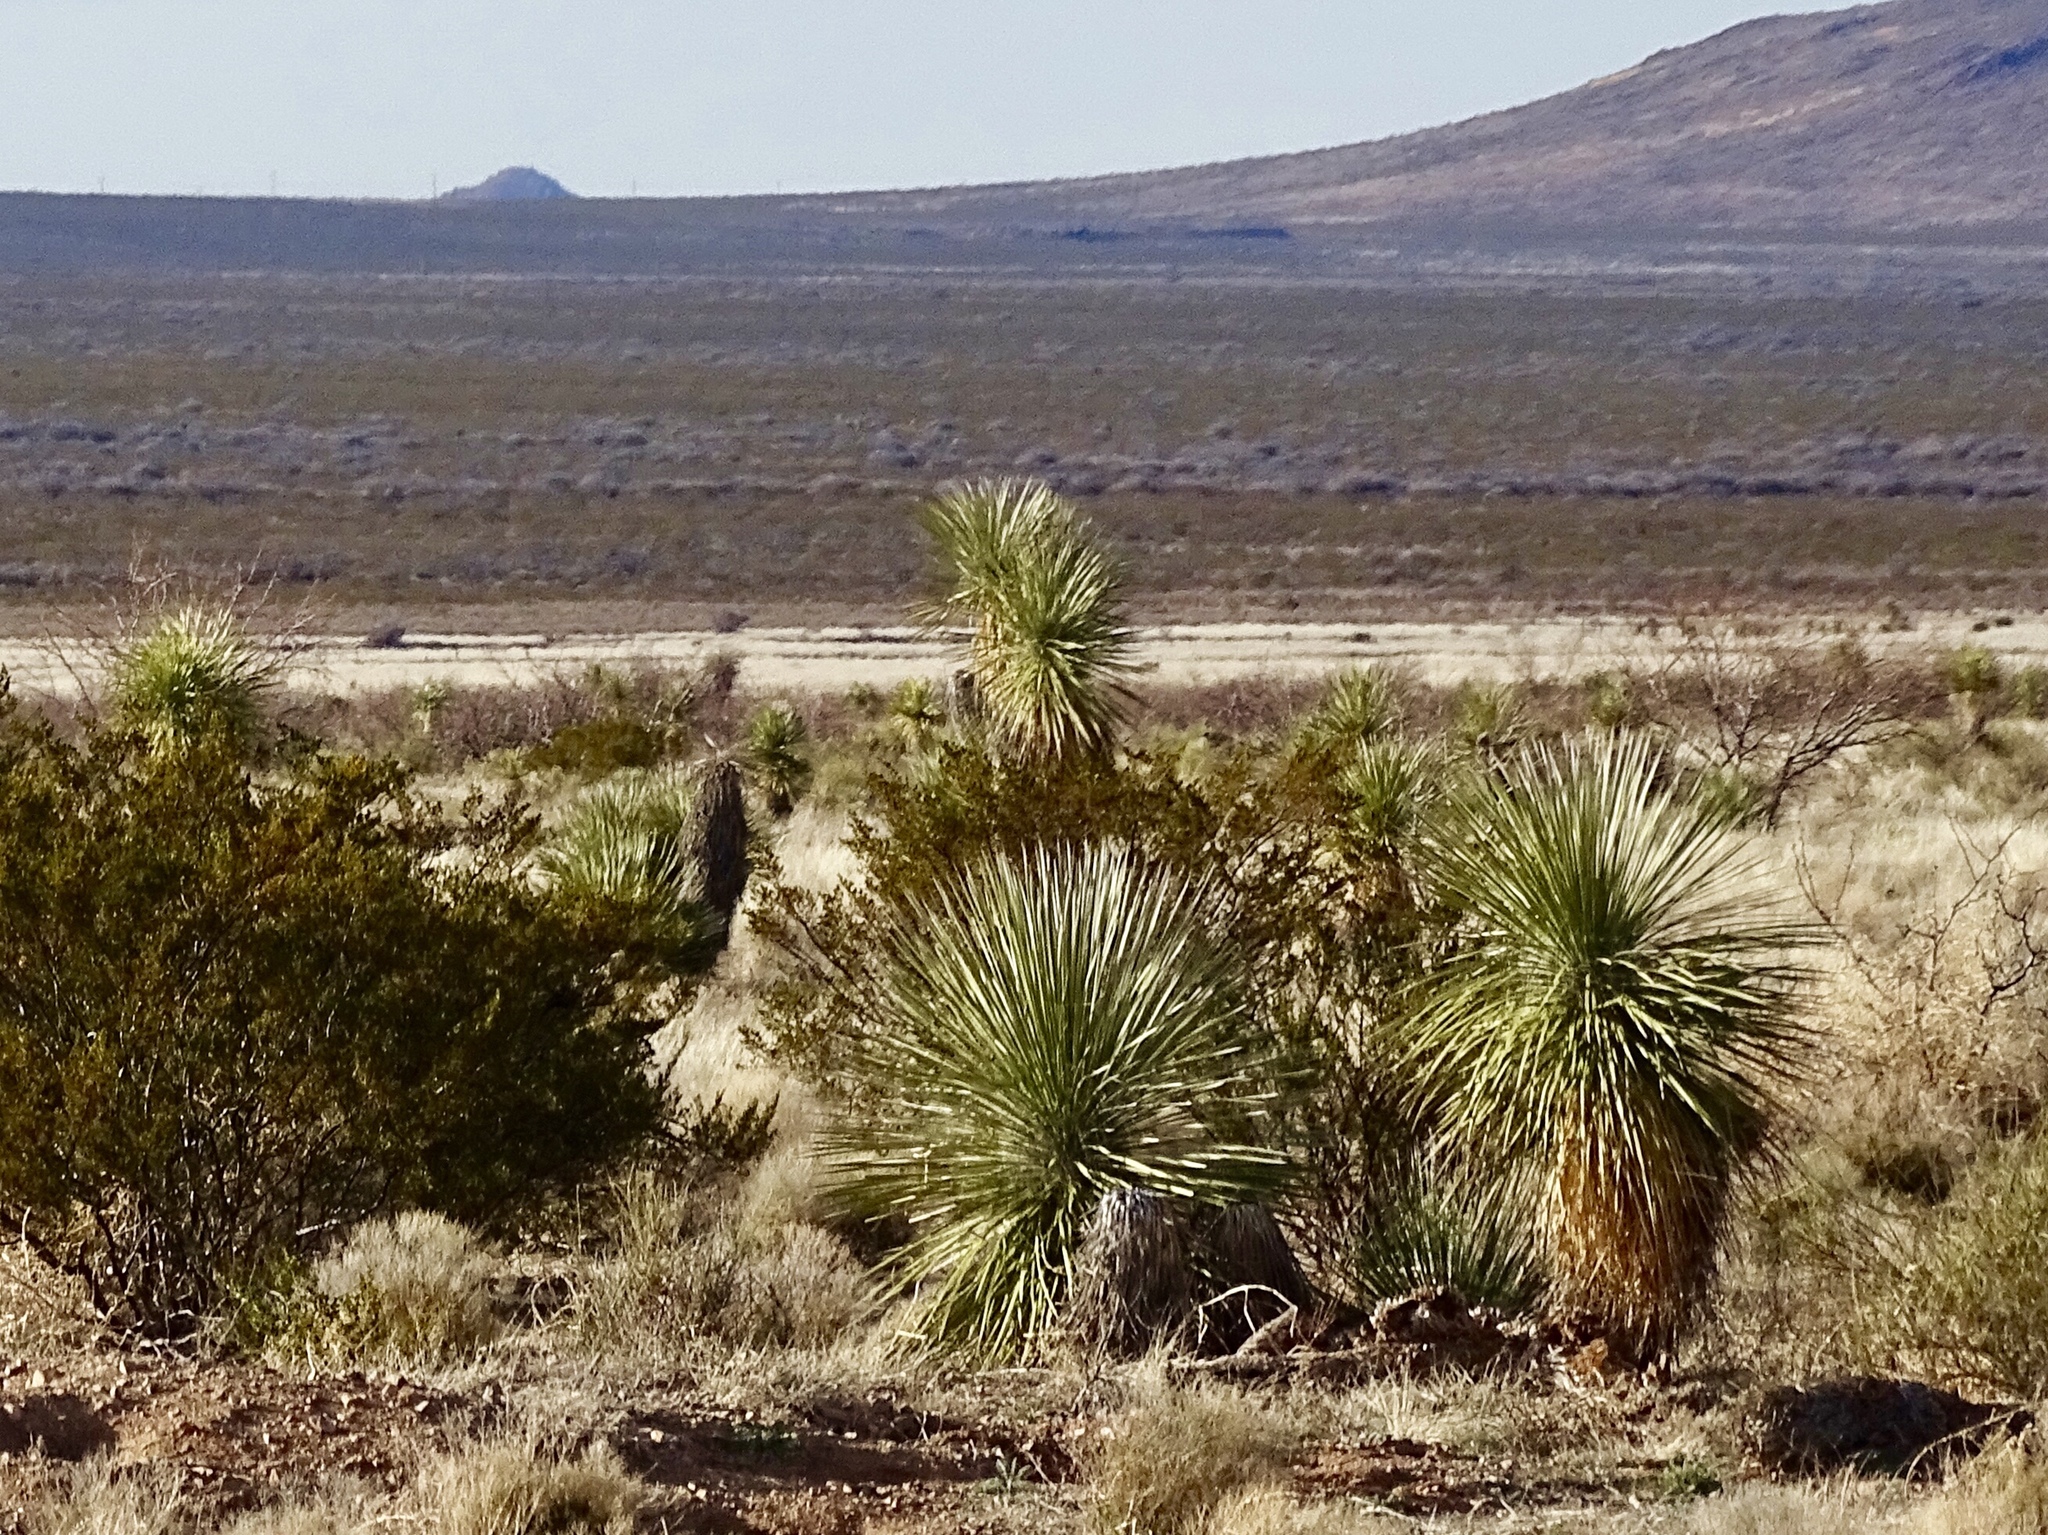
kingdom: Plantae
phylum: Tracheophyta
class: Liliopsida
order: Asparagales
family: Asparagaceae
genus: Yucca
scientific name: Yucca elata
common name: Palmella
